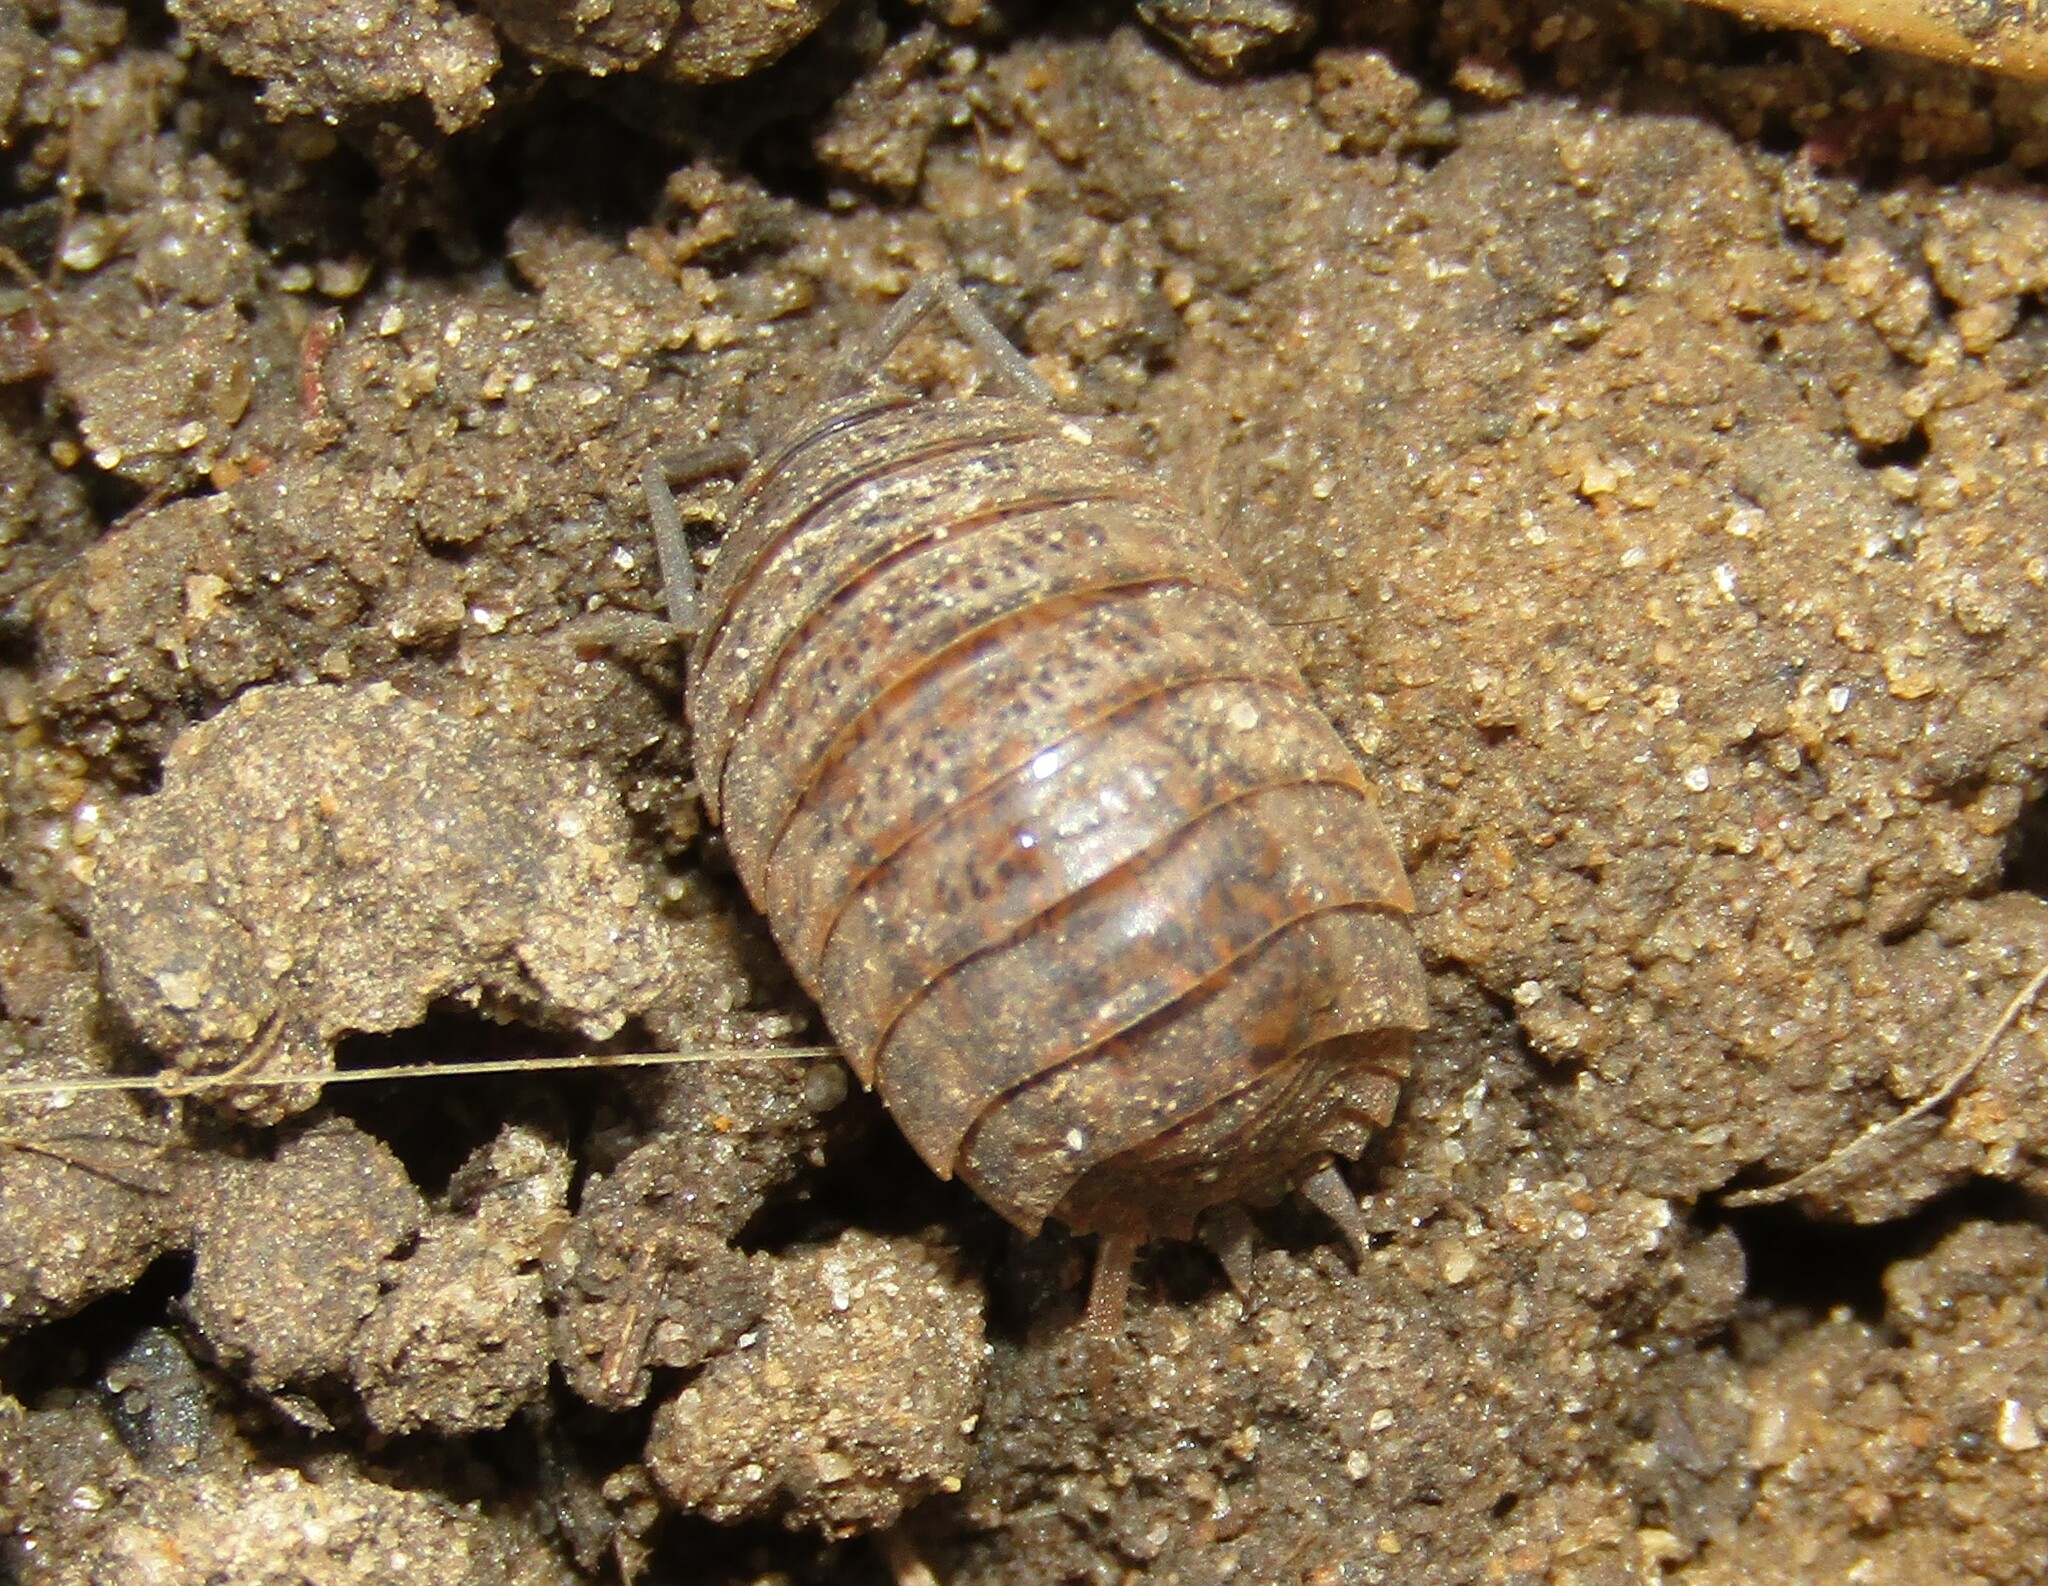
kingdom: Animalia
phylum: Arthropoda
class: Malacostraca
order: Isopoda
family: Trachelipodidae
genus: Trachelipus
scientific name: Trachelipus rathkii
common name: Isopod
